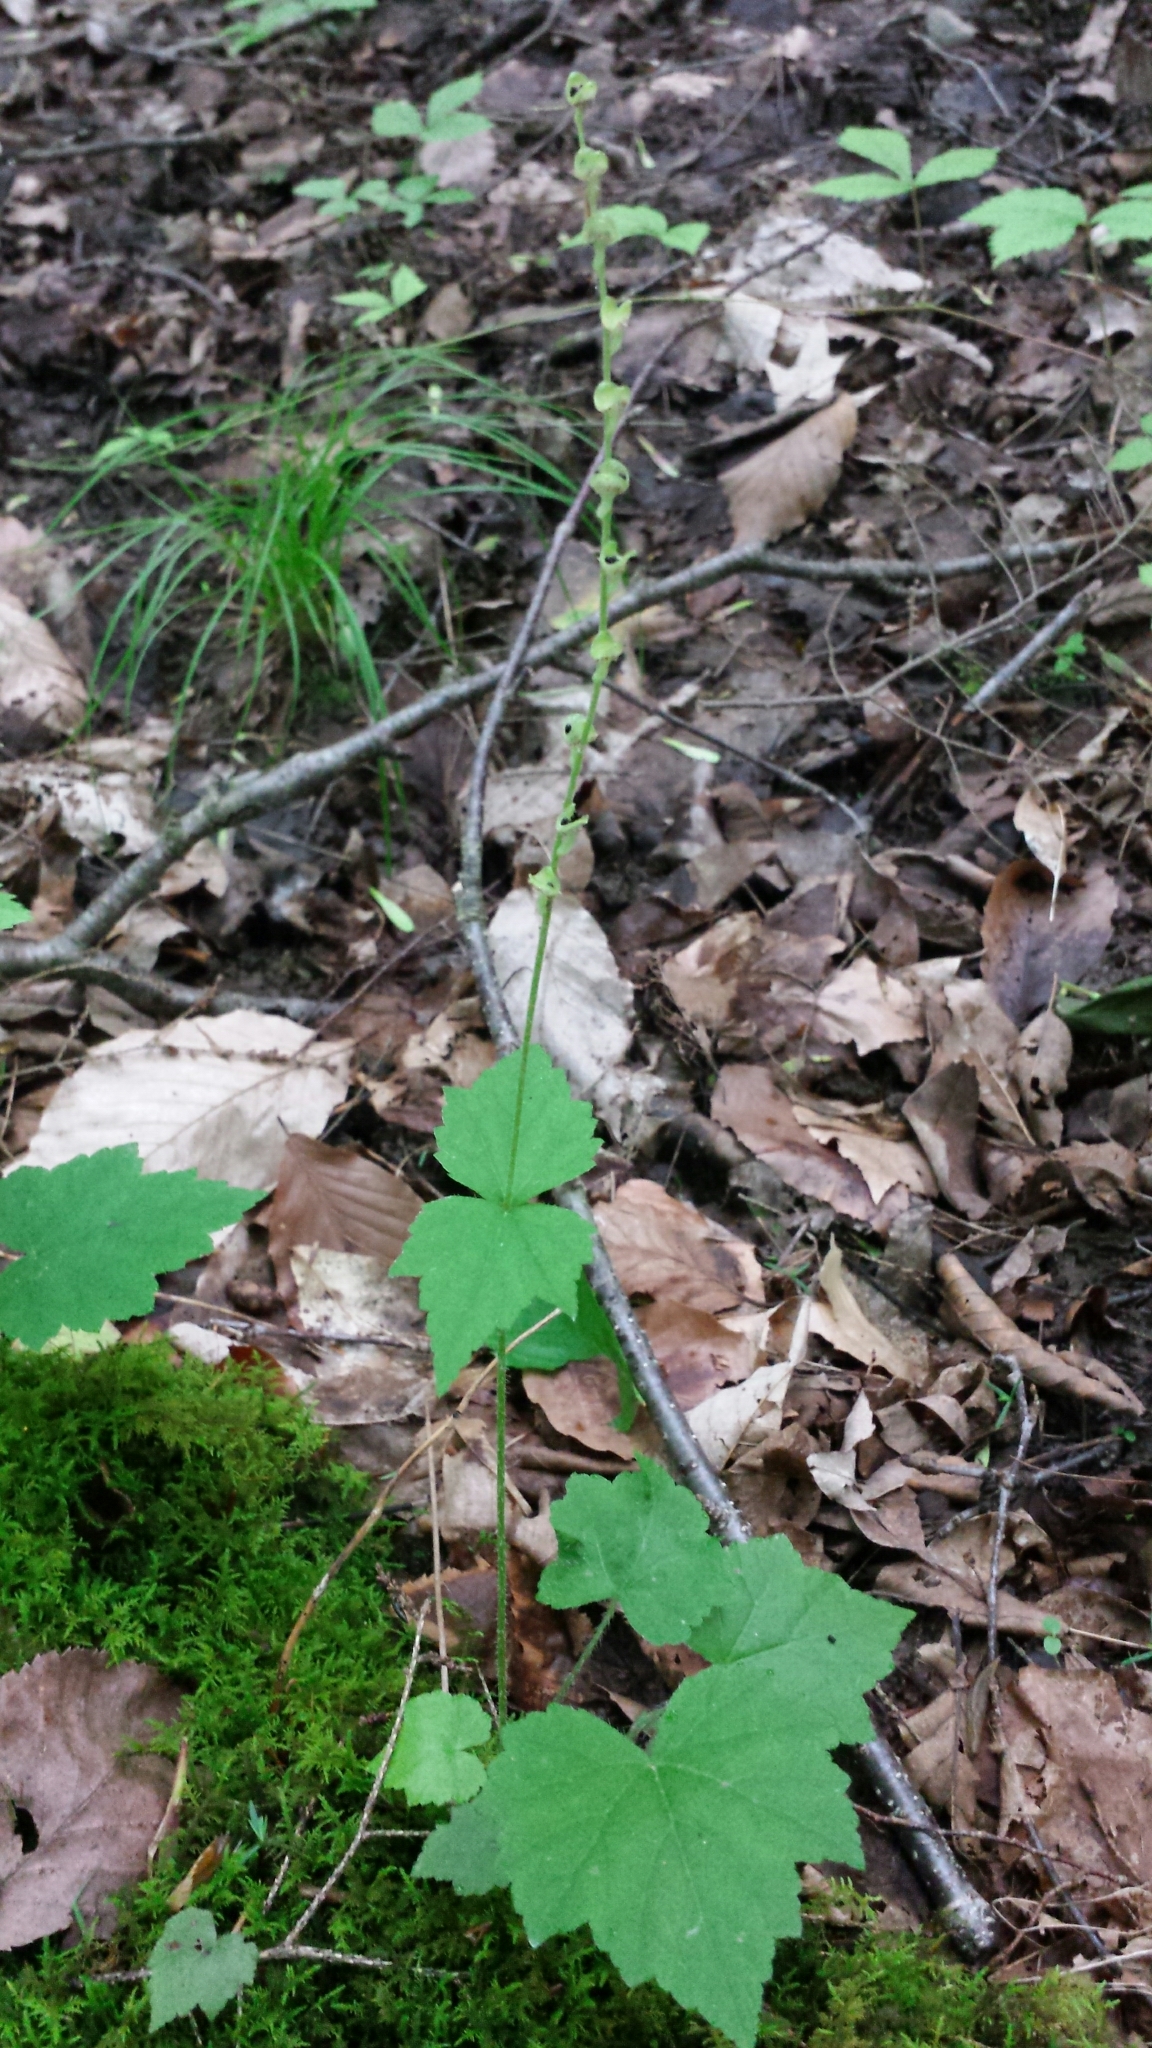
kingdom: Plantae
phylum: Tracheophyta
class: Magnoliopsida
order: Saxifragales
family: Saxifragaceae
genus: Mitella
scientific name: Mitella diphylla
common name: Coolwort
